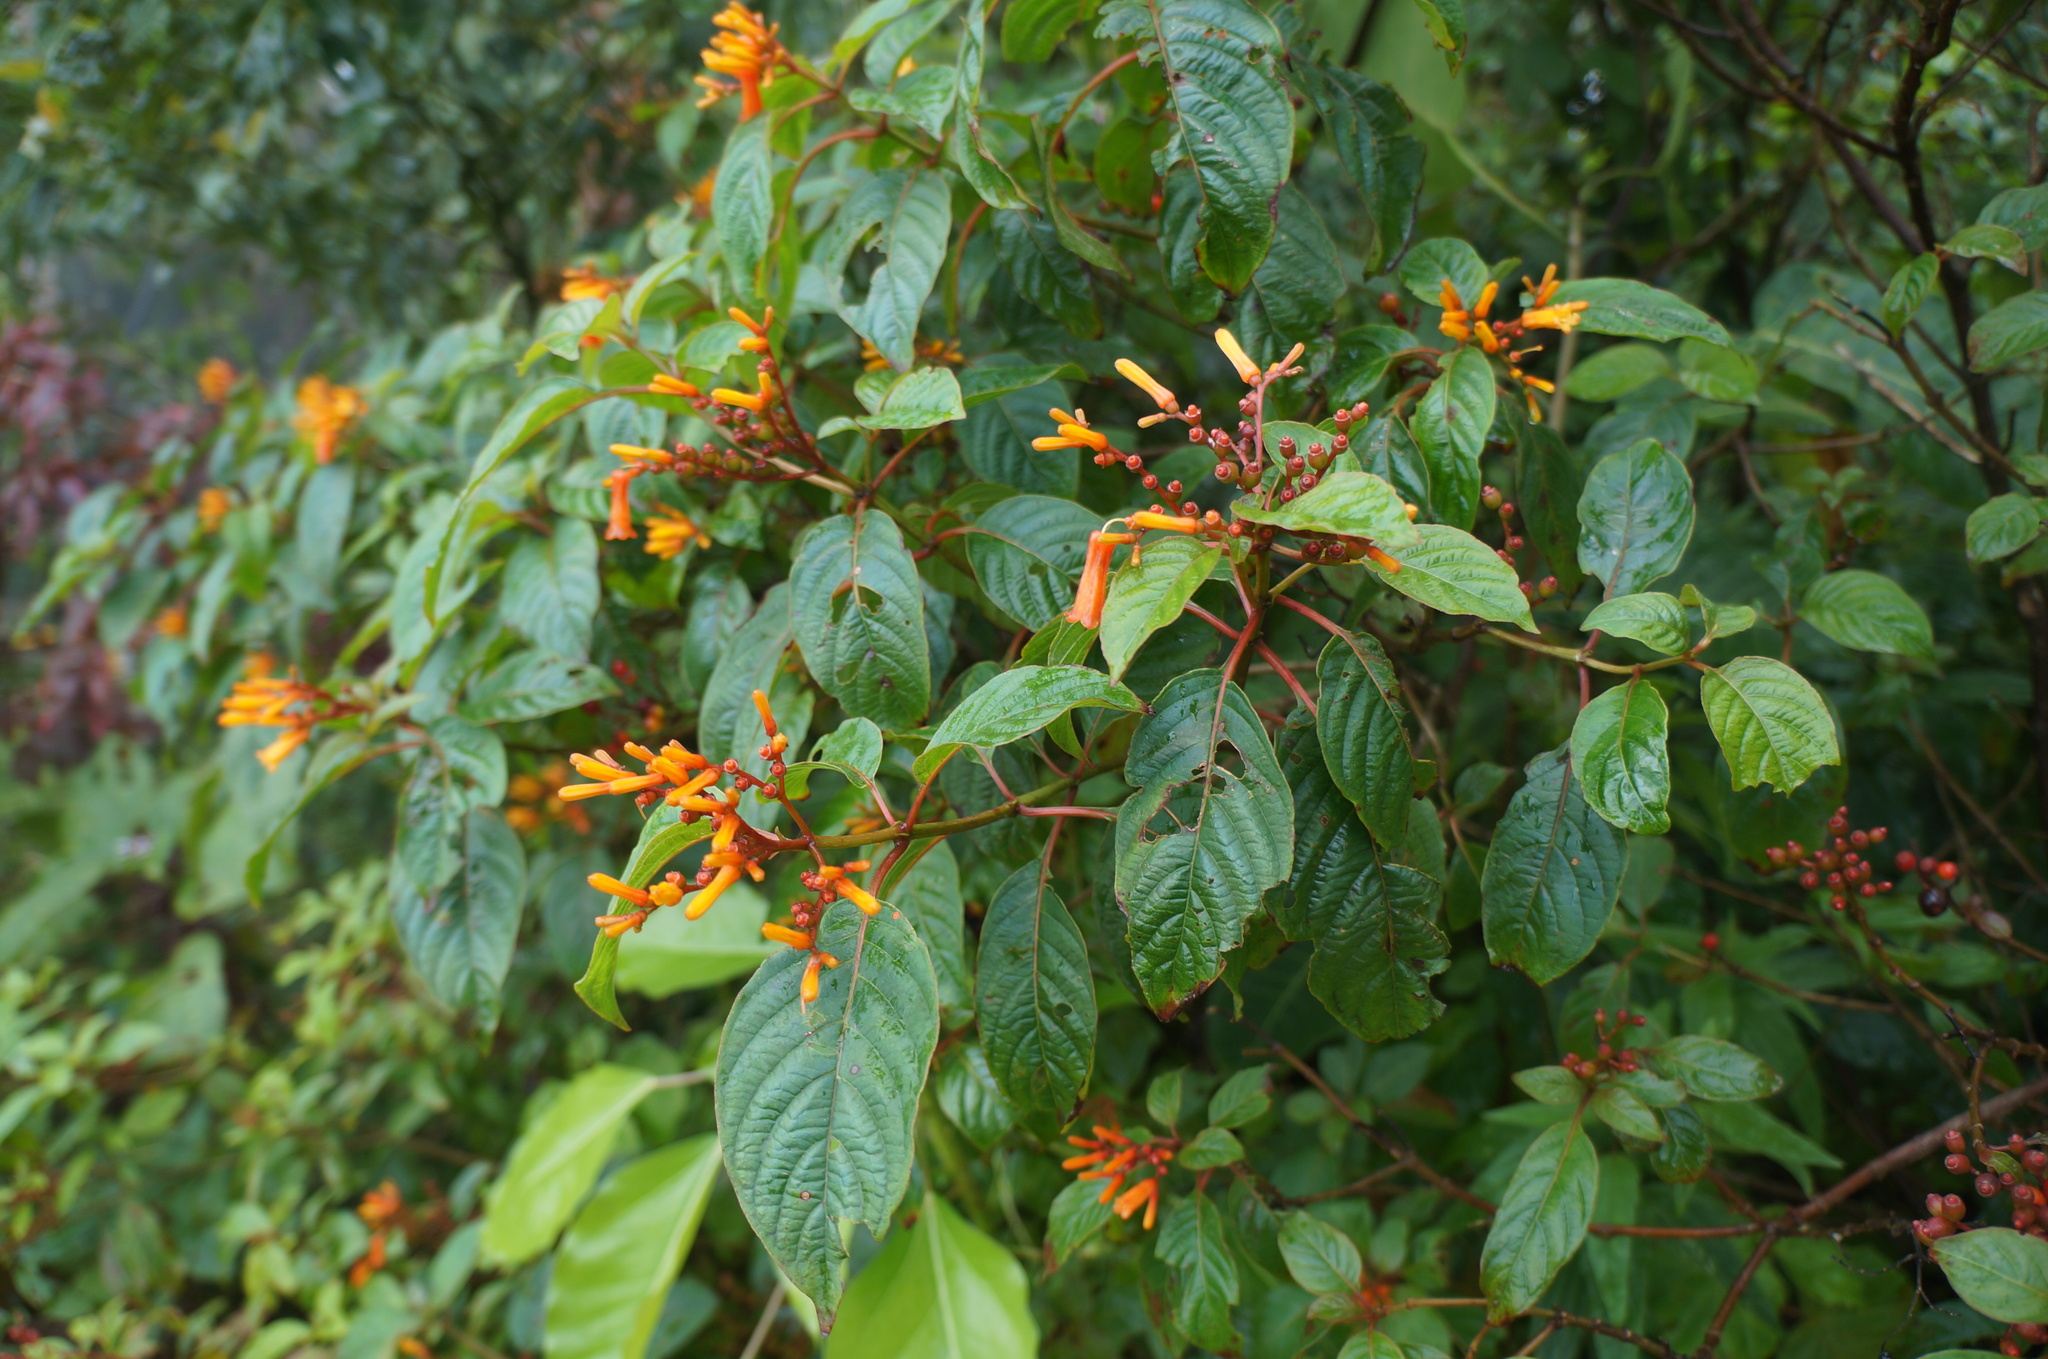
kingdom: Plantae
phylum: Tracheophyta
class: Magnoliopsida
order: Gentianales
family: Rubiaceae
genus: Hamelia
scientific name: Hamelia patens
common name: Redhead
